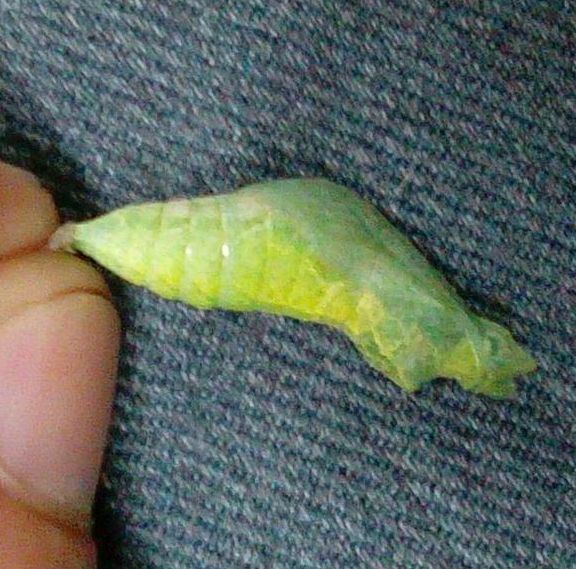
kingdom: Animalia
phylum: Arthropoda
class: Insecta
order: Lepidoptera
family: Papilionidae
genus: Papilio
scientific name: Papilio demoleus
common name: Lime butterfly
